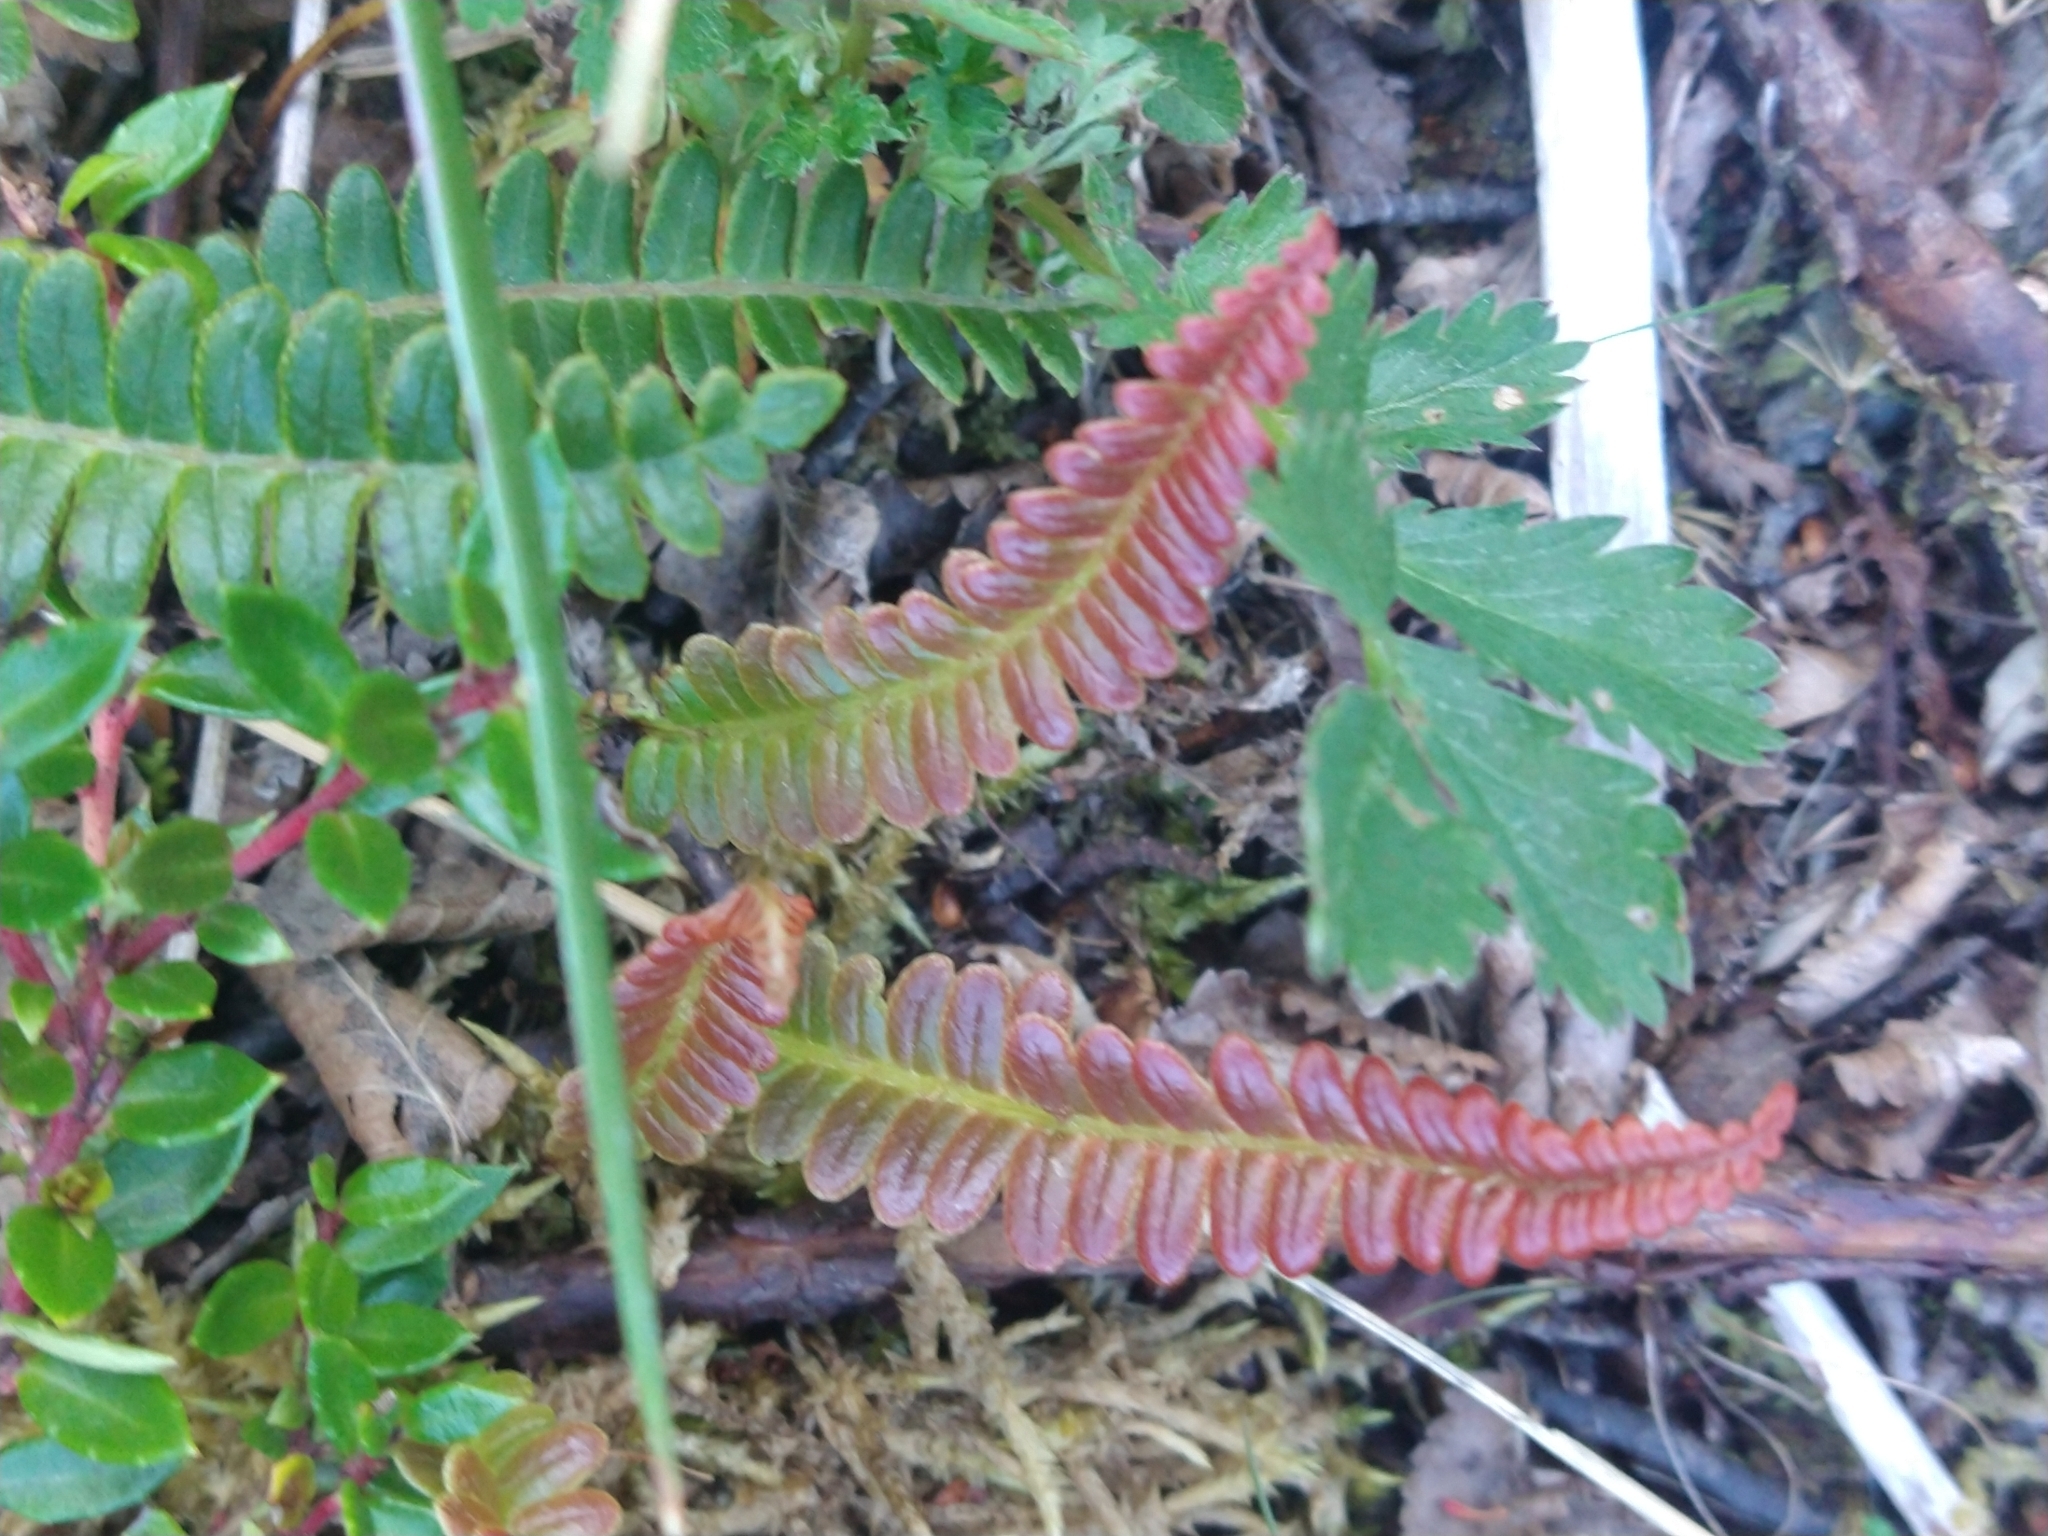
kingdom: Plantae
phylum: Tracheophyta
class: Polypodiopsida
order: Polypodiales
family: Blechnaceae
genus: Austroblechnum
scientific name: Austroblechnum penna-marina
